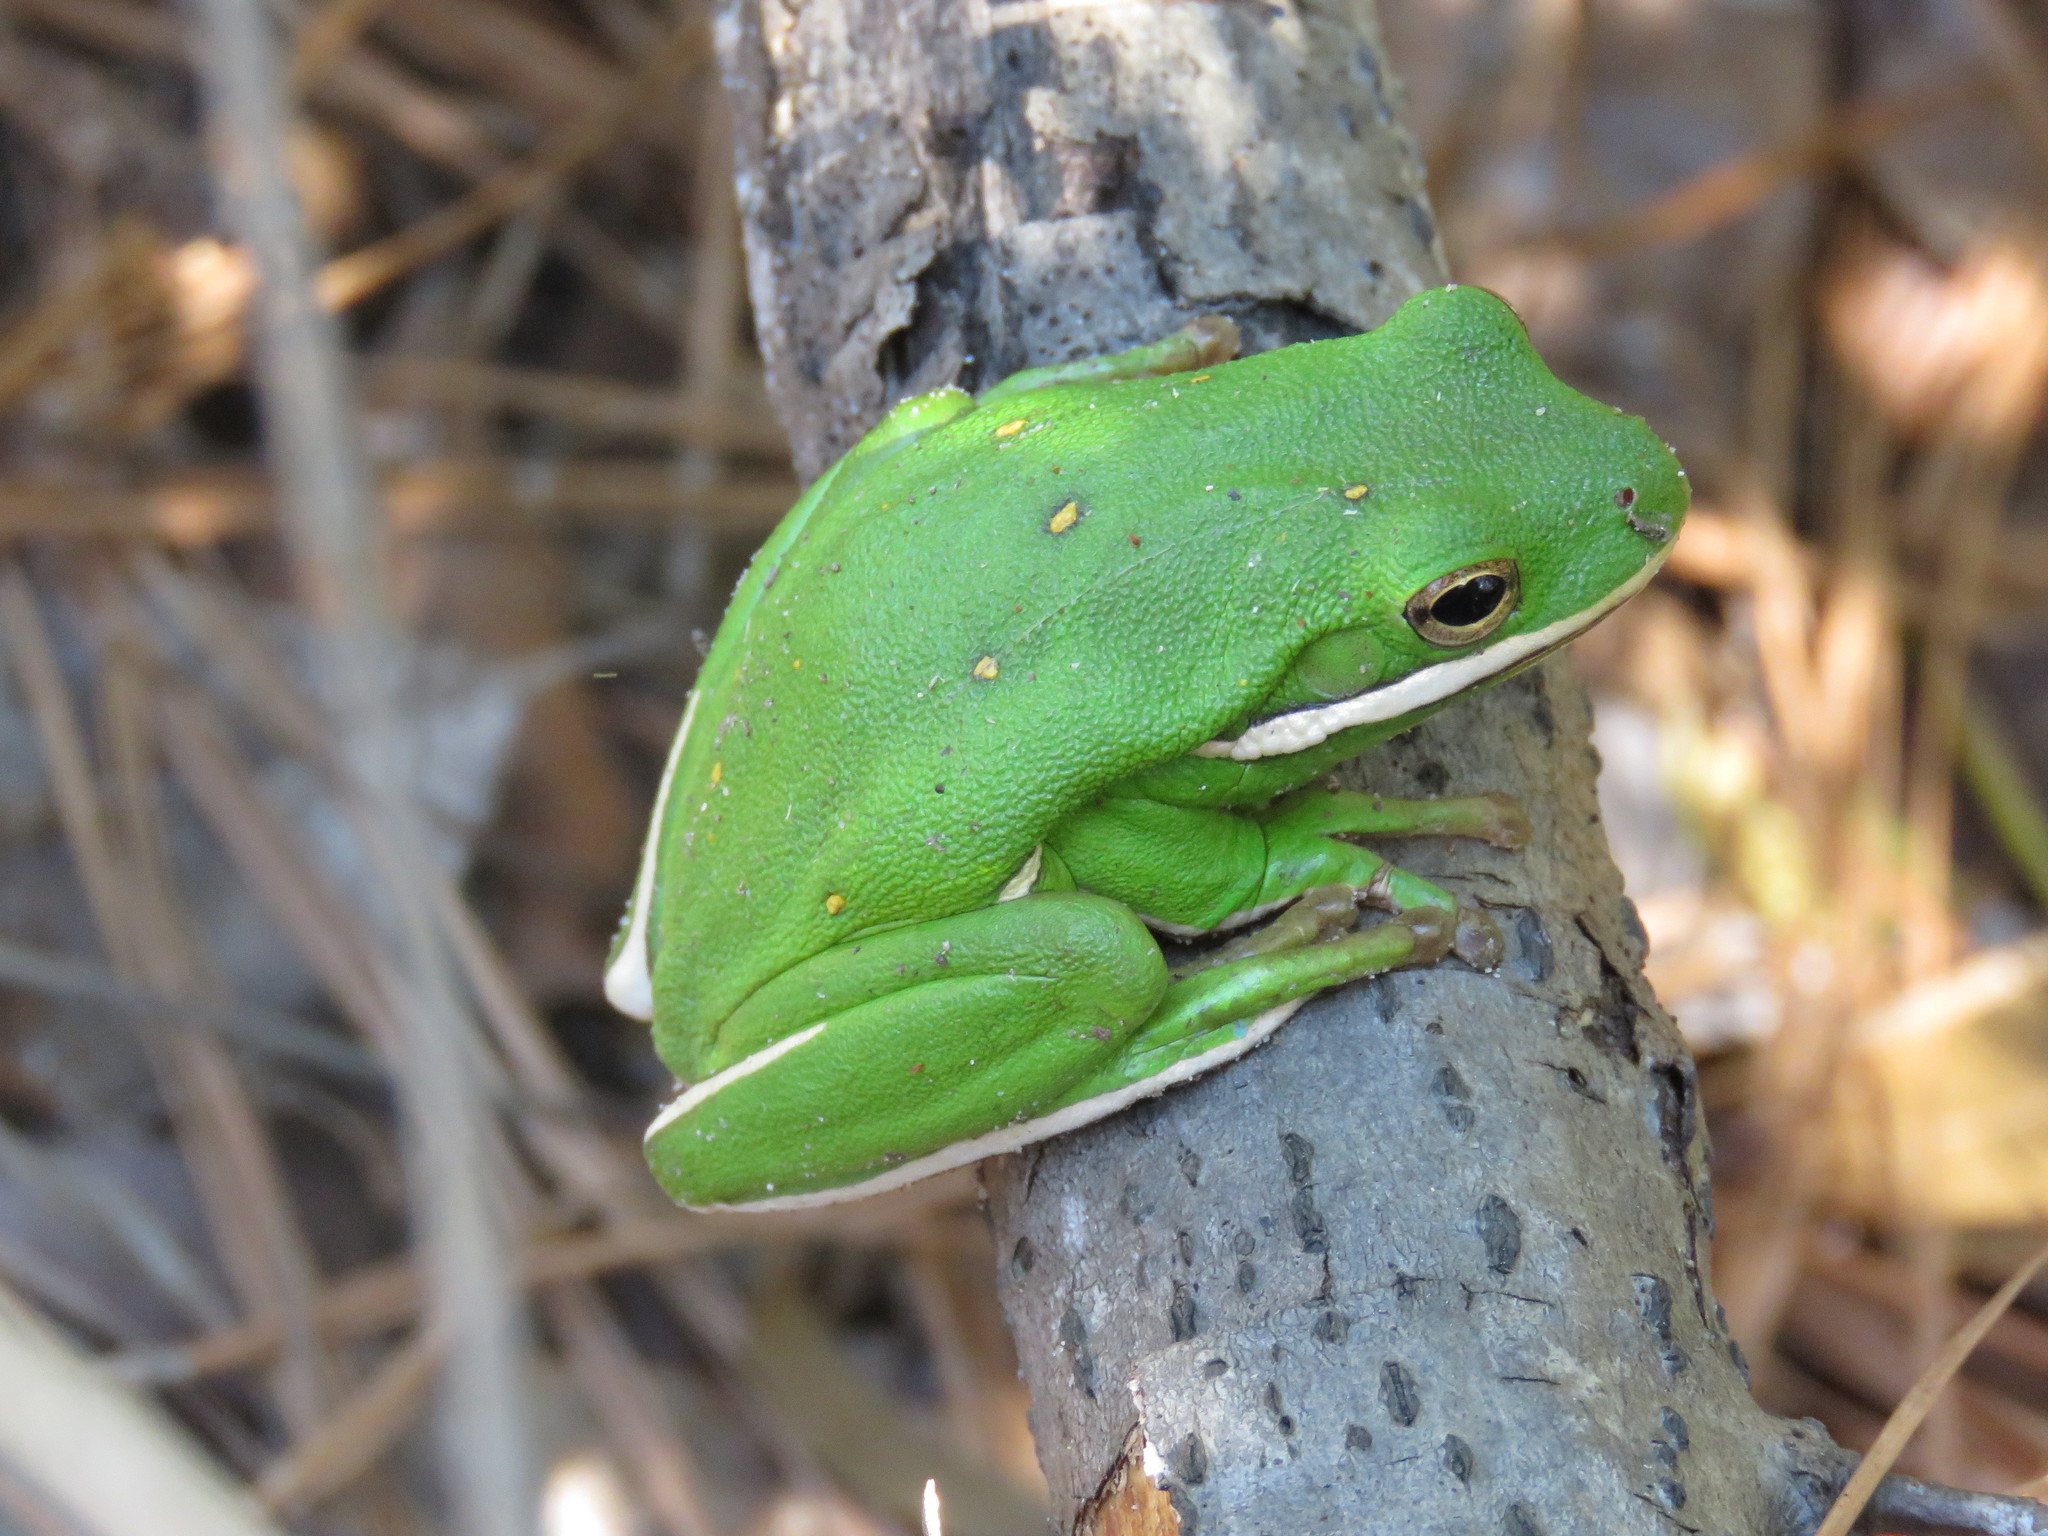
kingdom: Animalia
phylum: Chordata
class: Amphibia
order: Anura
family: Hylidae
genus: Dryophytes
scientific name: Dryophytes cinereus
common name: Green treefrog
